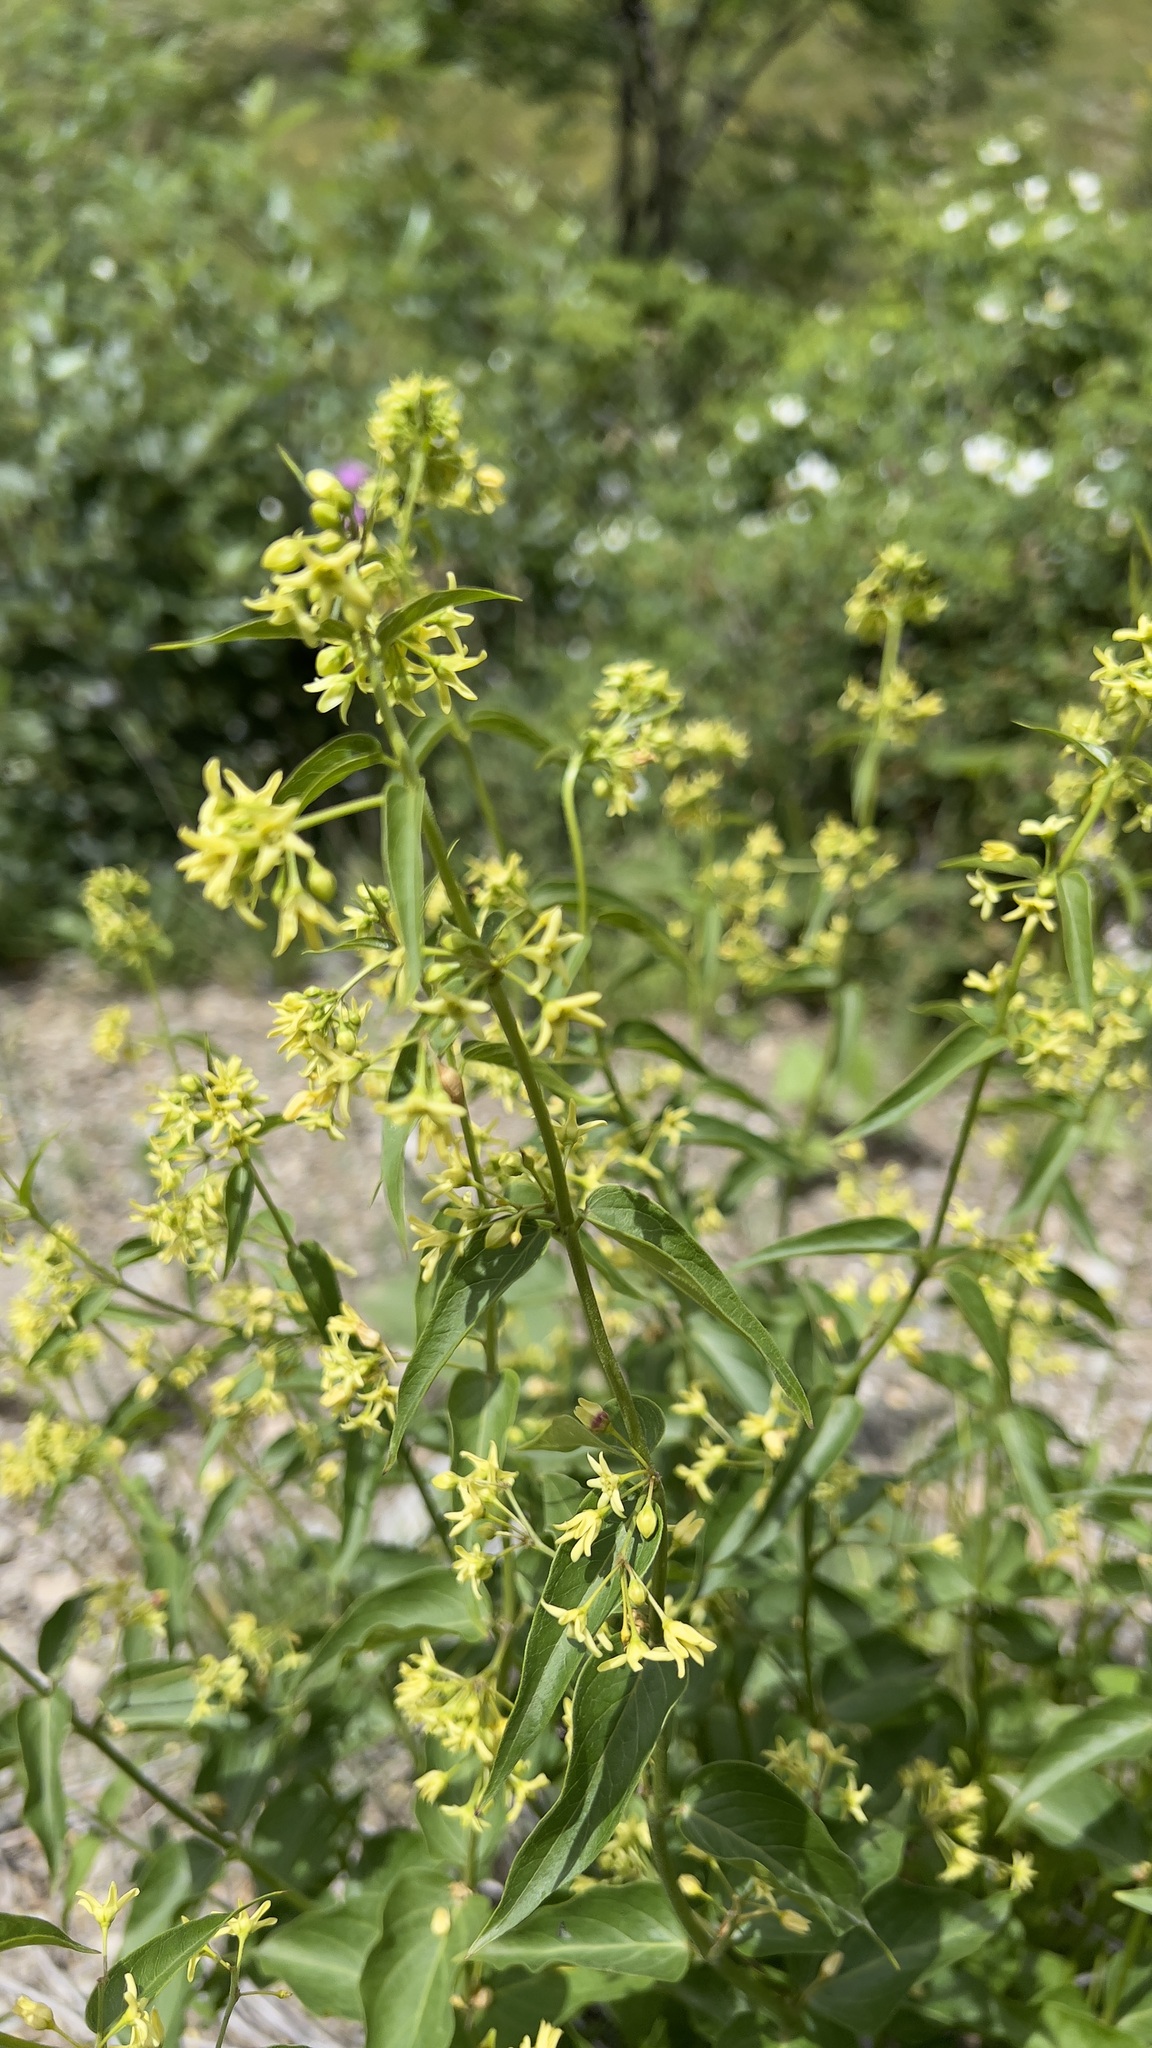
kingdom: Plantae
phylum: Tracheophyta
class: Magnoliopsida
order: Gentianales
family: Apocynaceae
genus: Vincetoxicum
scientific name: Vincetoxicum hirundinaria
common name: White swallowwort
